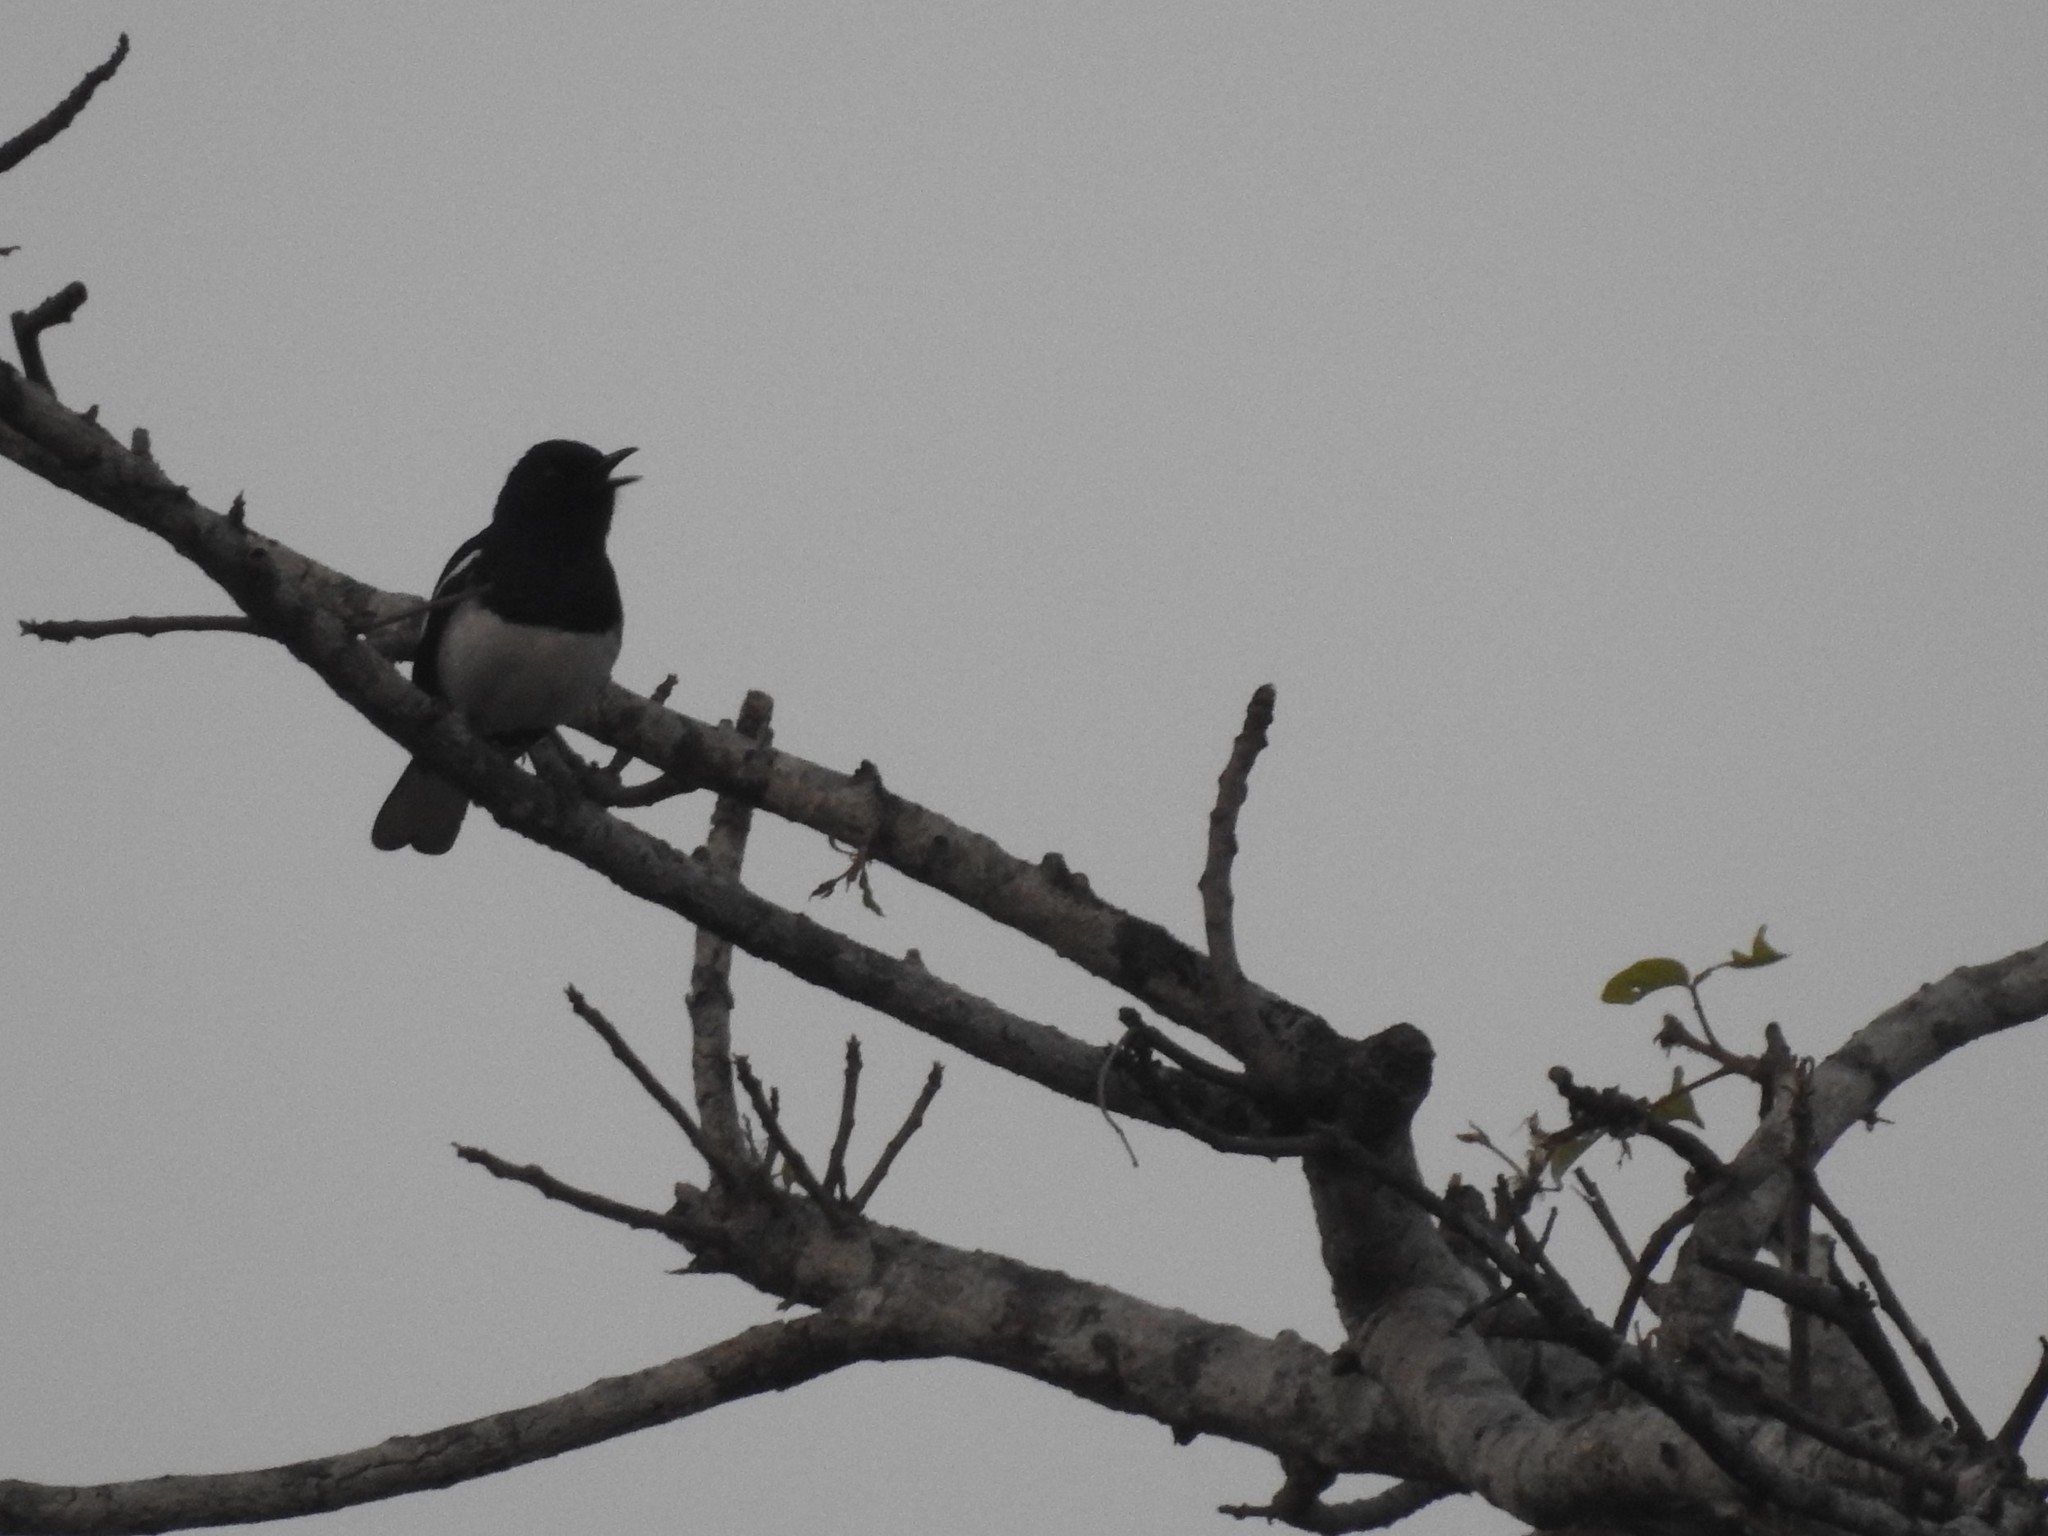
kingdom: Animalia
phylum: Chordata
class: Aves
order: Passeriformes
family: Muscicapidae
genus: Copsychus
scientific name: Copsychus saularis
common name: Oriental magpie-robin
